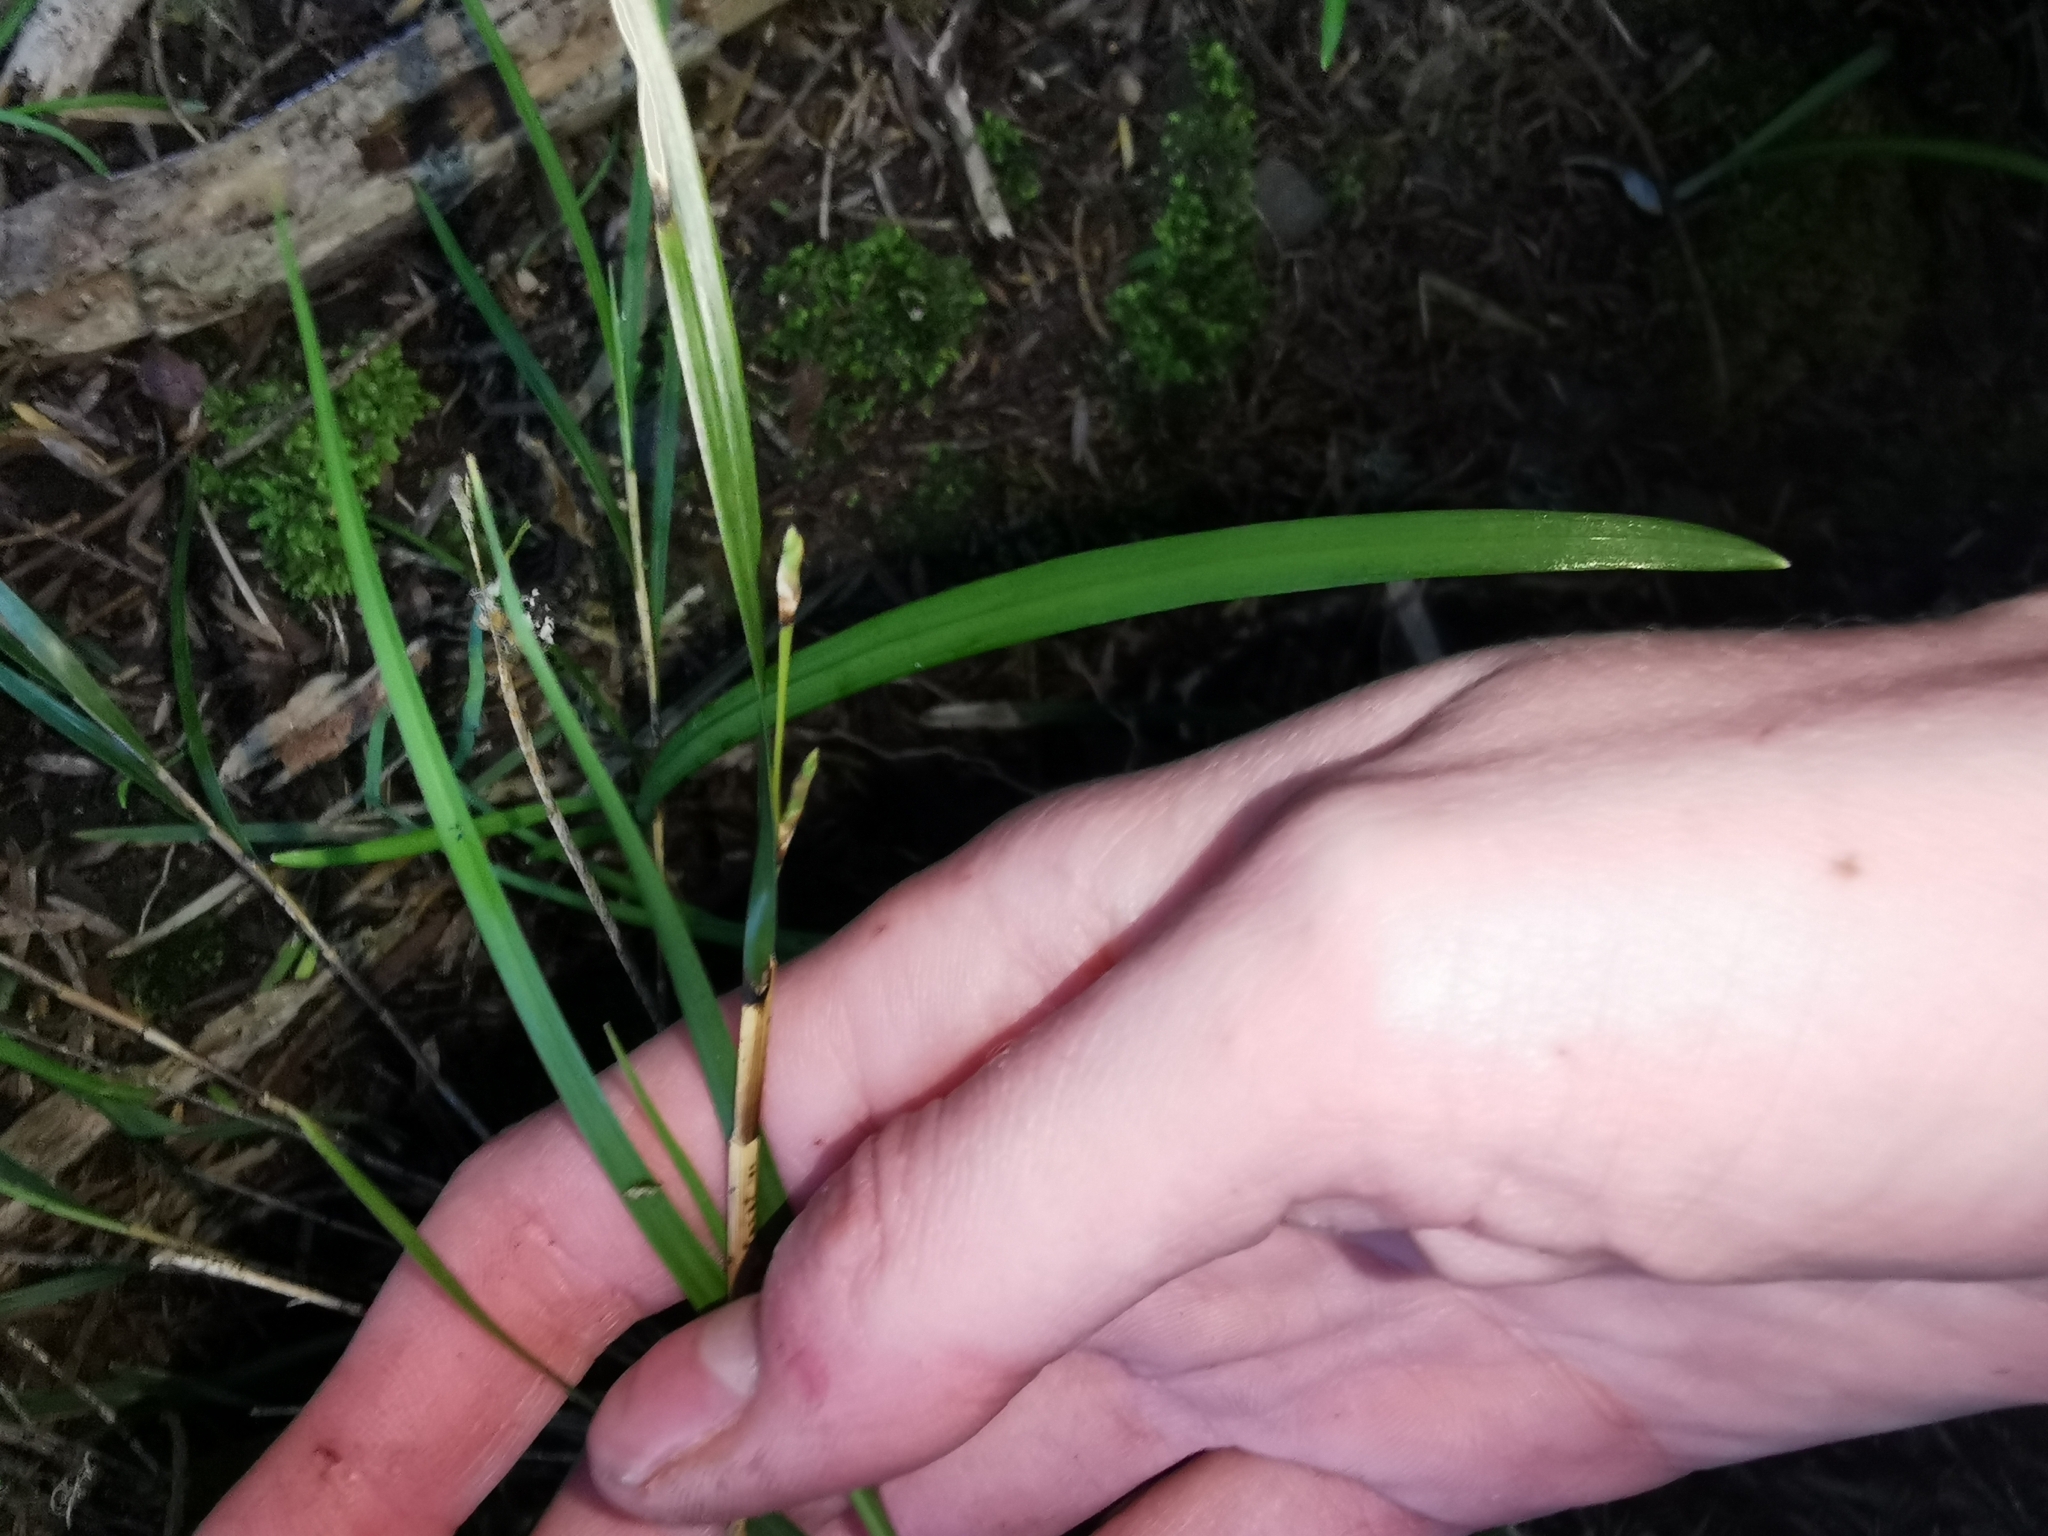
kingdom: Plantae
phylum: Tracheophyta
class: Liliopsida
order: Asparagales
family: Orchidaceae
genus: Earina
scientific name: Earina mucronata
